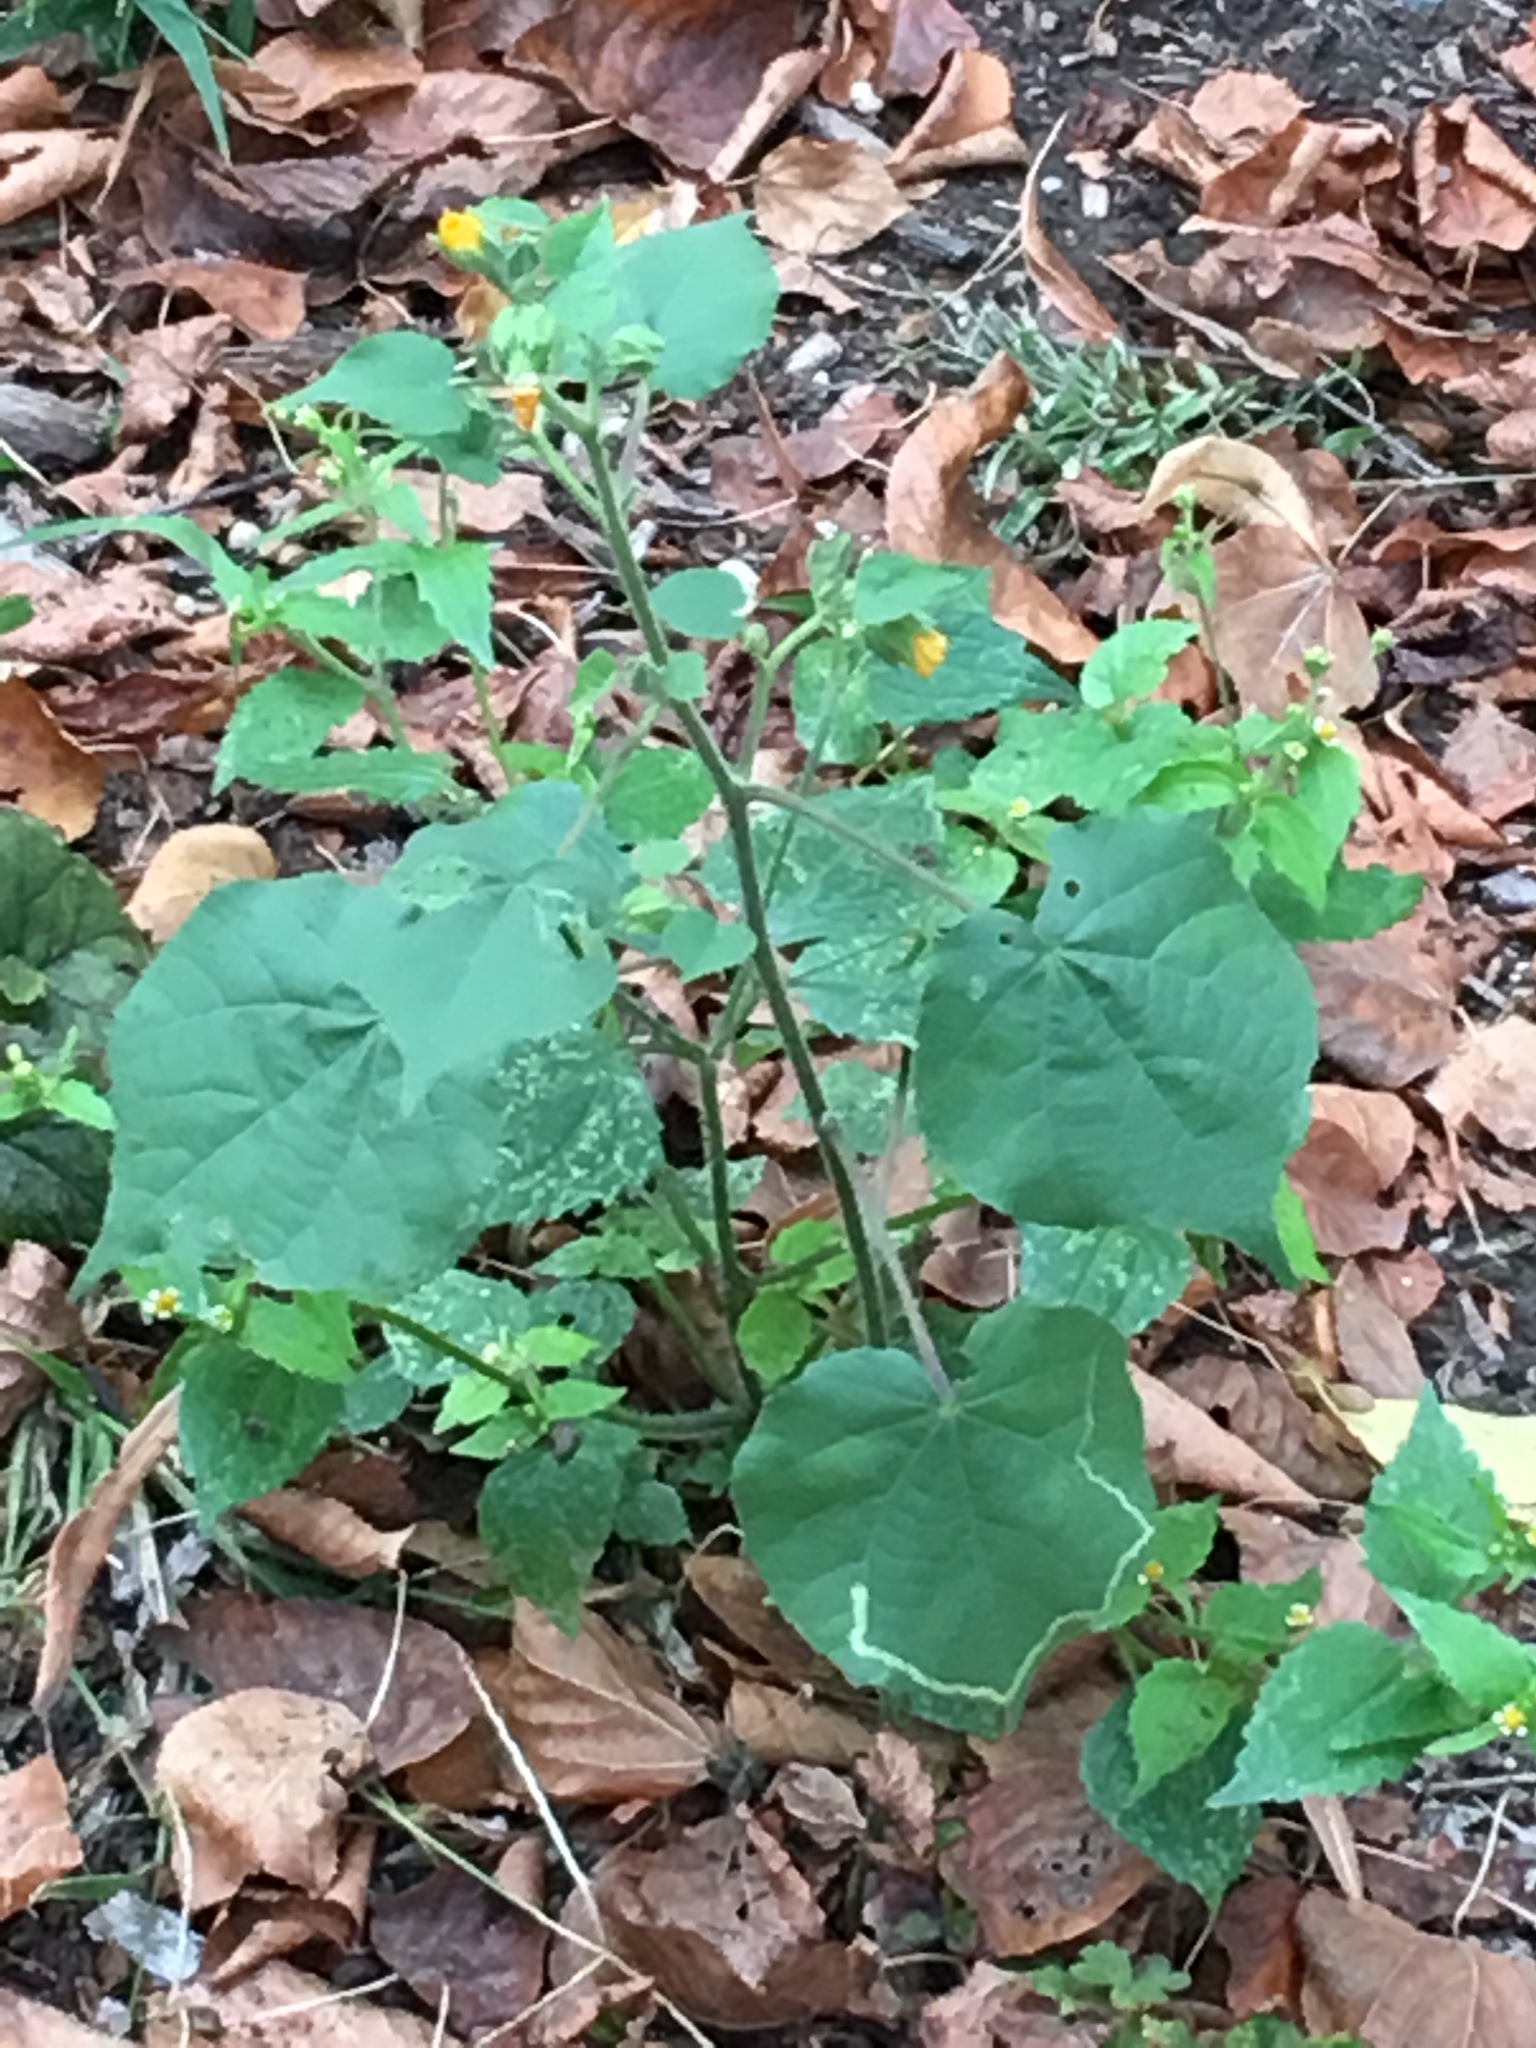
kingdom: Plantae
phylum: Tracheophyta
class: Magnoliopsida
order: Malvales
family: Malvaceae
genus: Abutilon
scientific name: Abutilon theophrasti
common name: Velvetleaf
